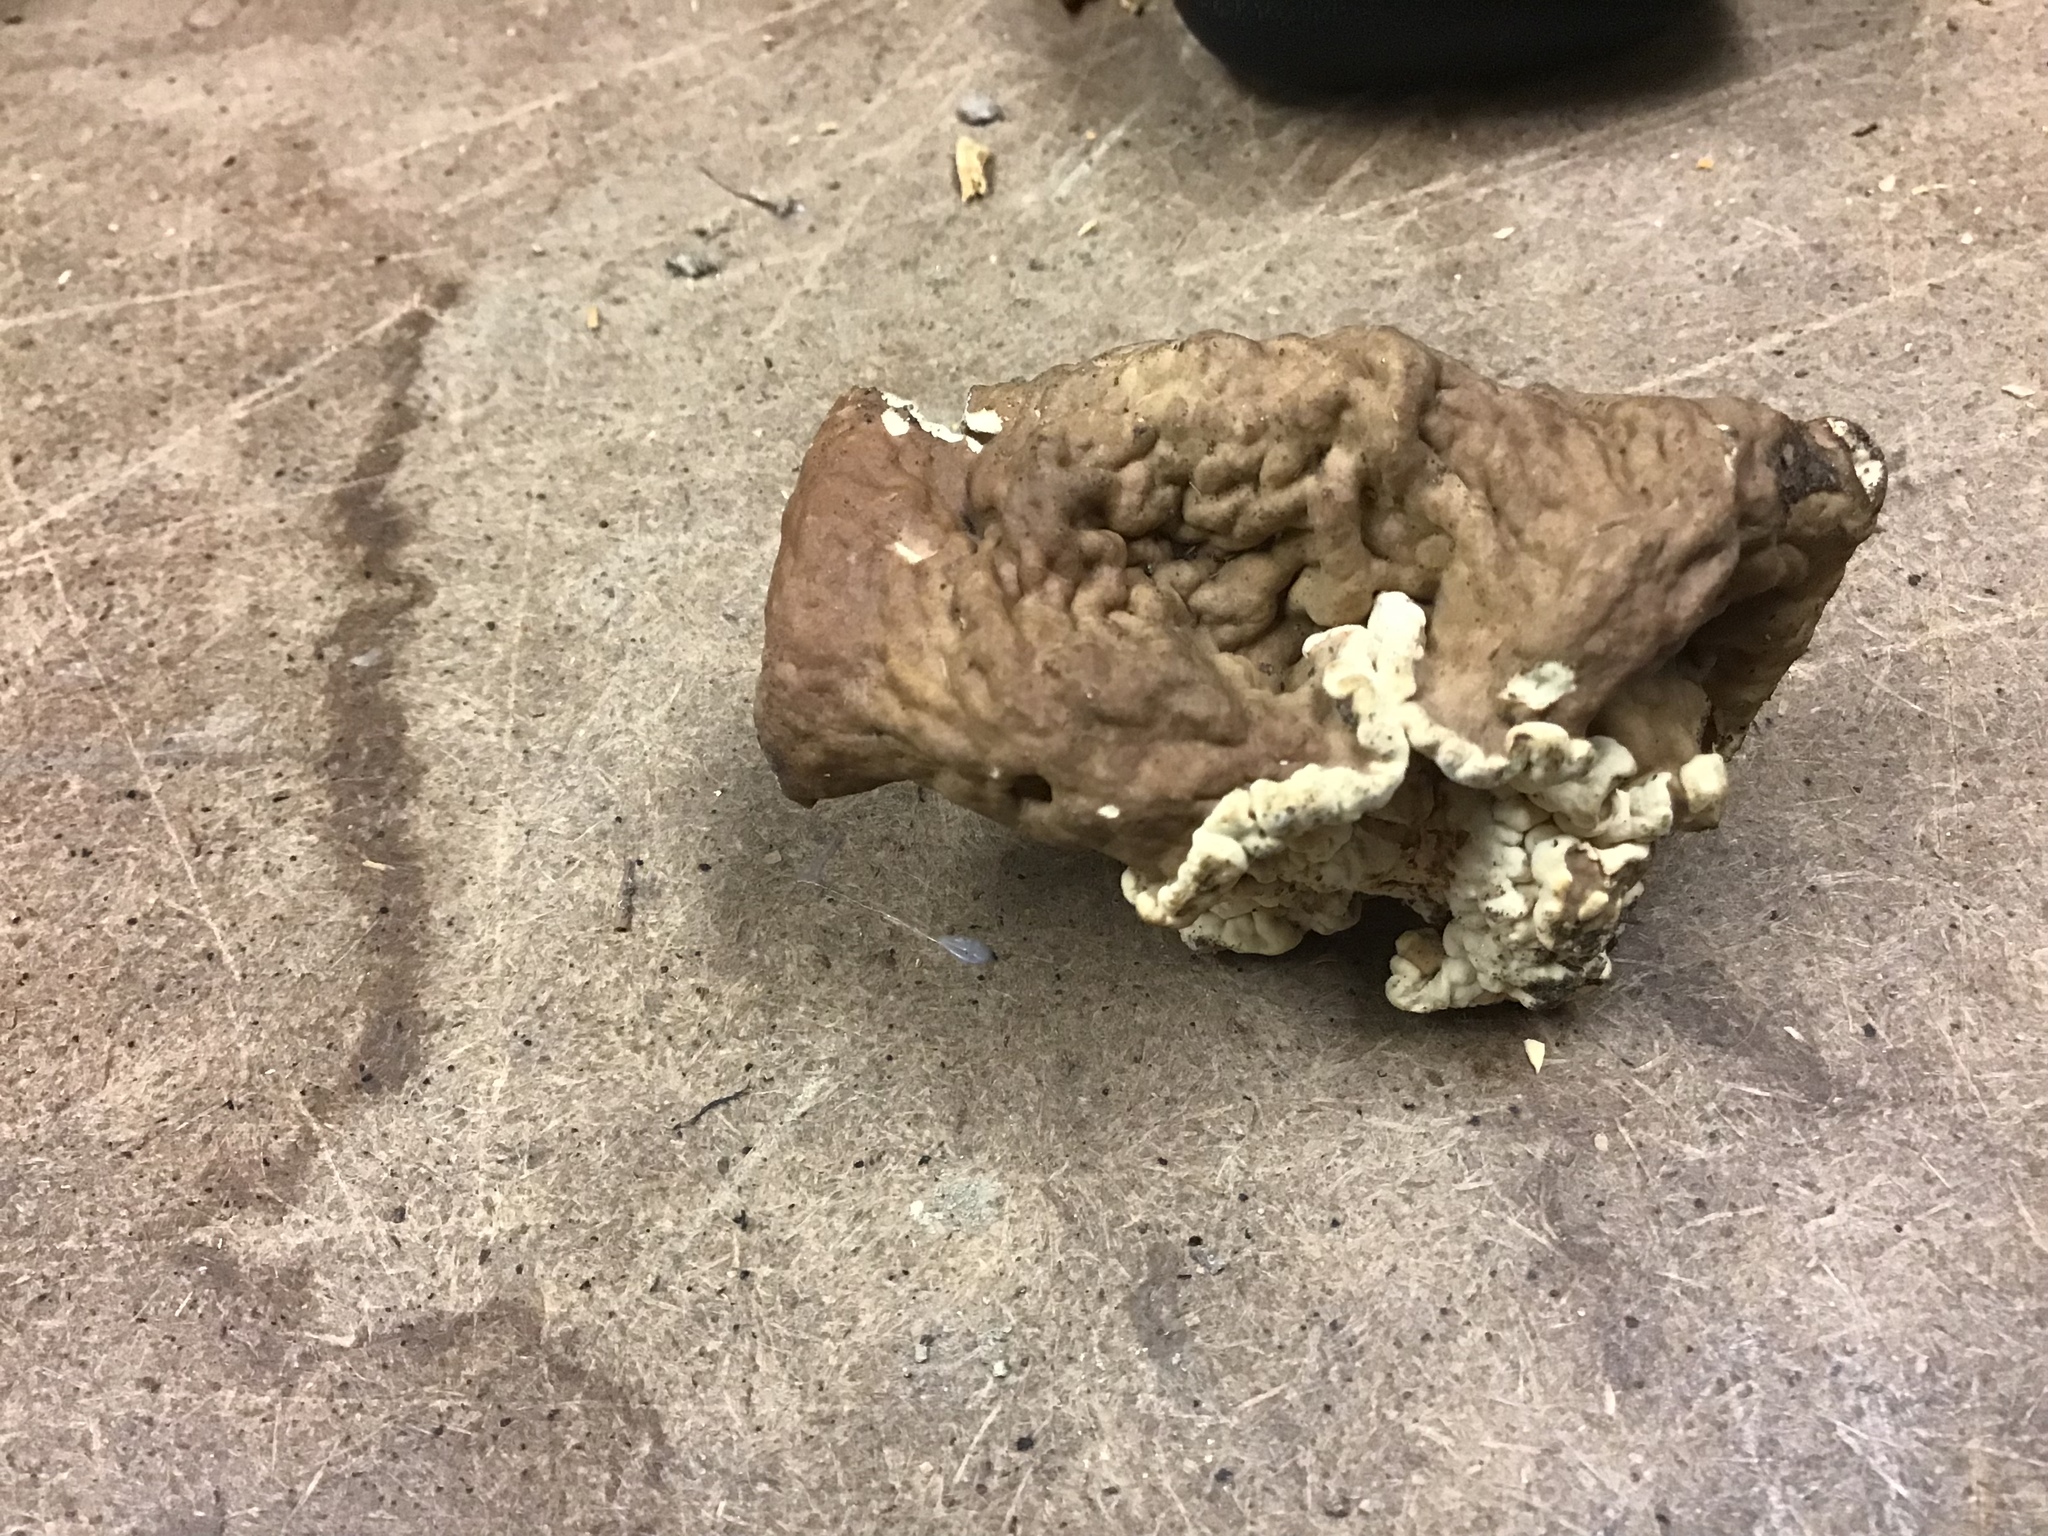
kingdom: Fungi
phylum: Ascomycota
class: Pezizomycetes
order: Pezizales
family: Discinaceae
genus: Discina
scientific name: Discina ancilis
